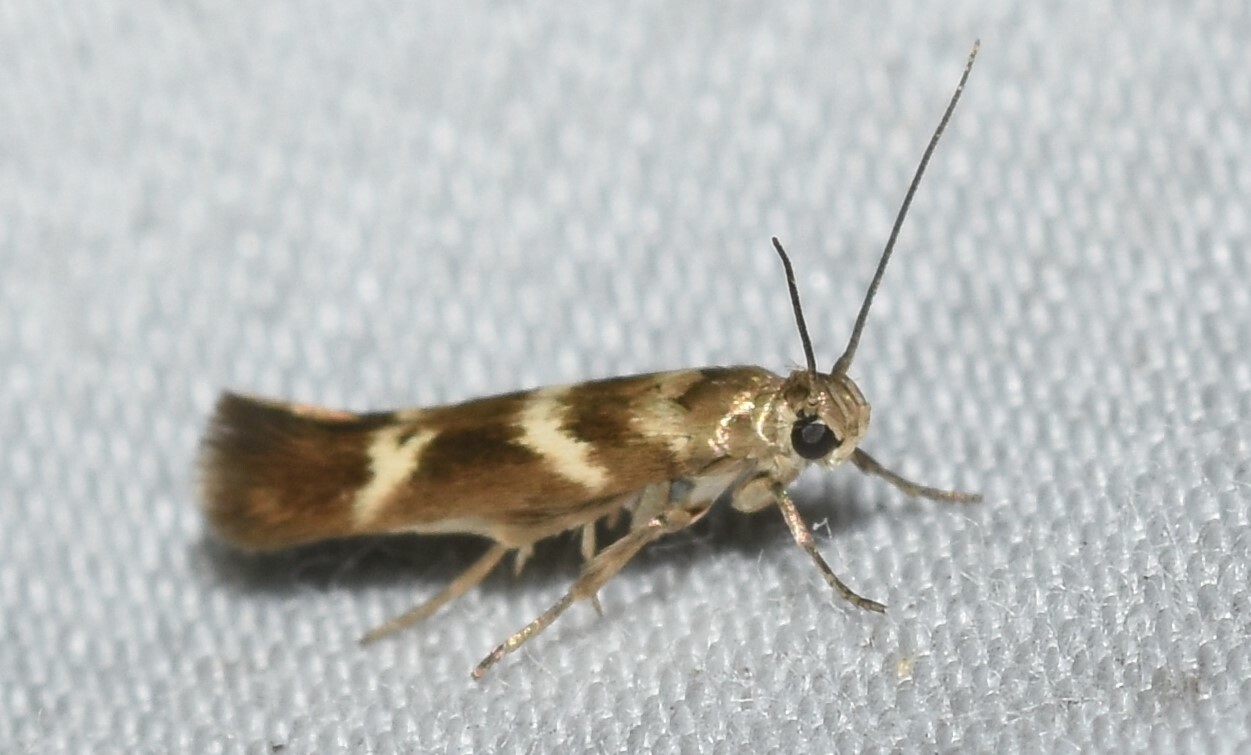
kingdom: Animalia
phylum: Arthropoda
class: Insecta
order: Lepidoptera
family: Scythrididae
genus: Scythris
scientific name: Scythris trivinctella
